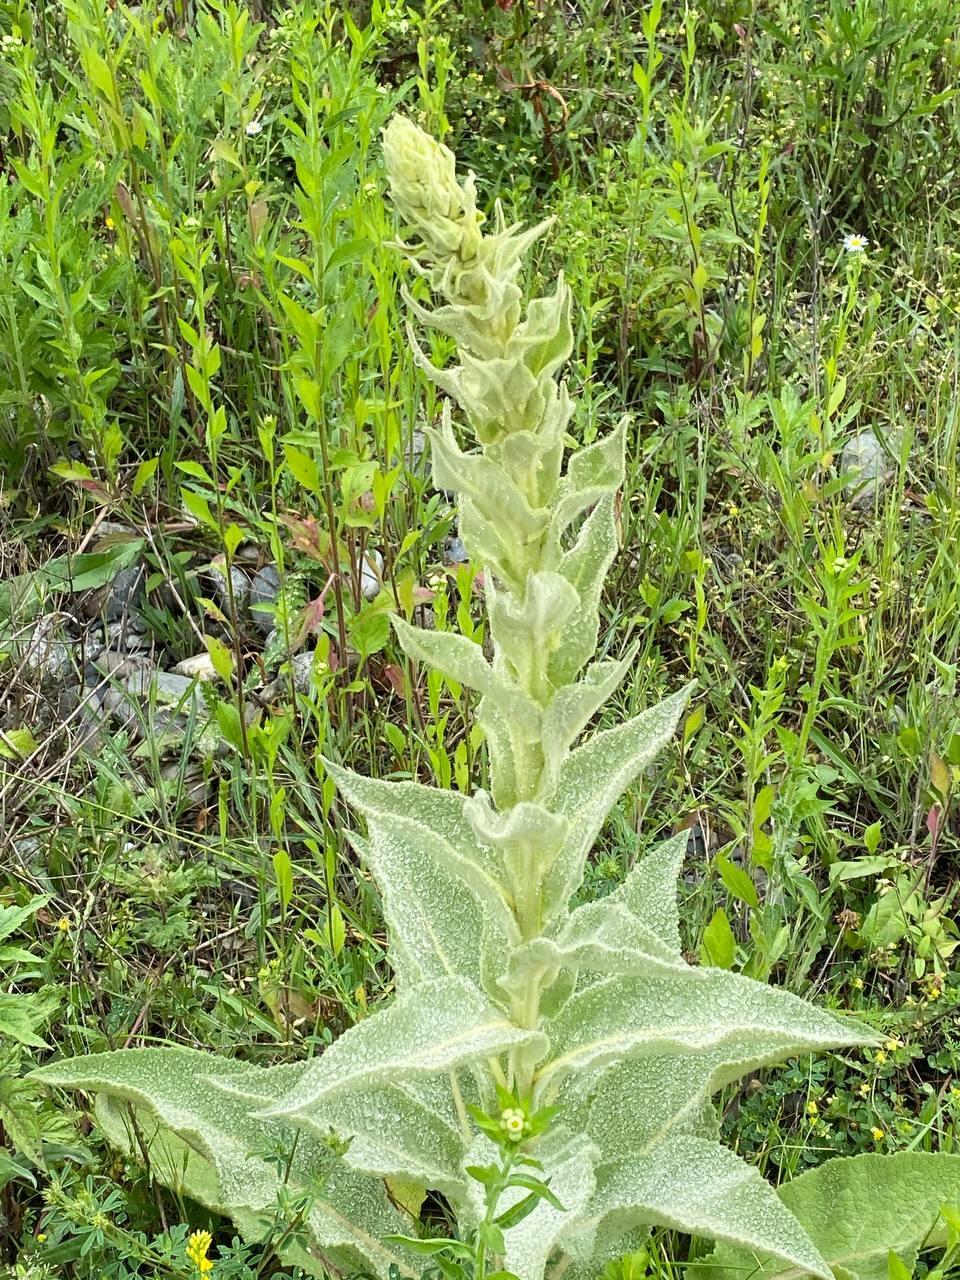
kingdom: Plantae
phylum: Tracheophyta
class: Magnoliopsida
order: Lamiales
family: Scrophulariaceae
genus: Verbascum
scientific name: Verbascum phlomoides
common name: Orange mullein
